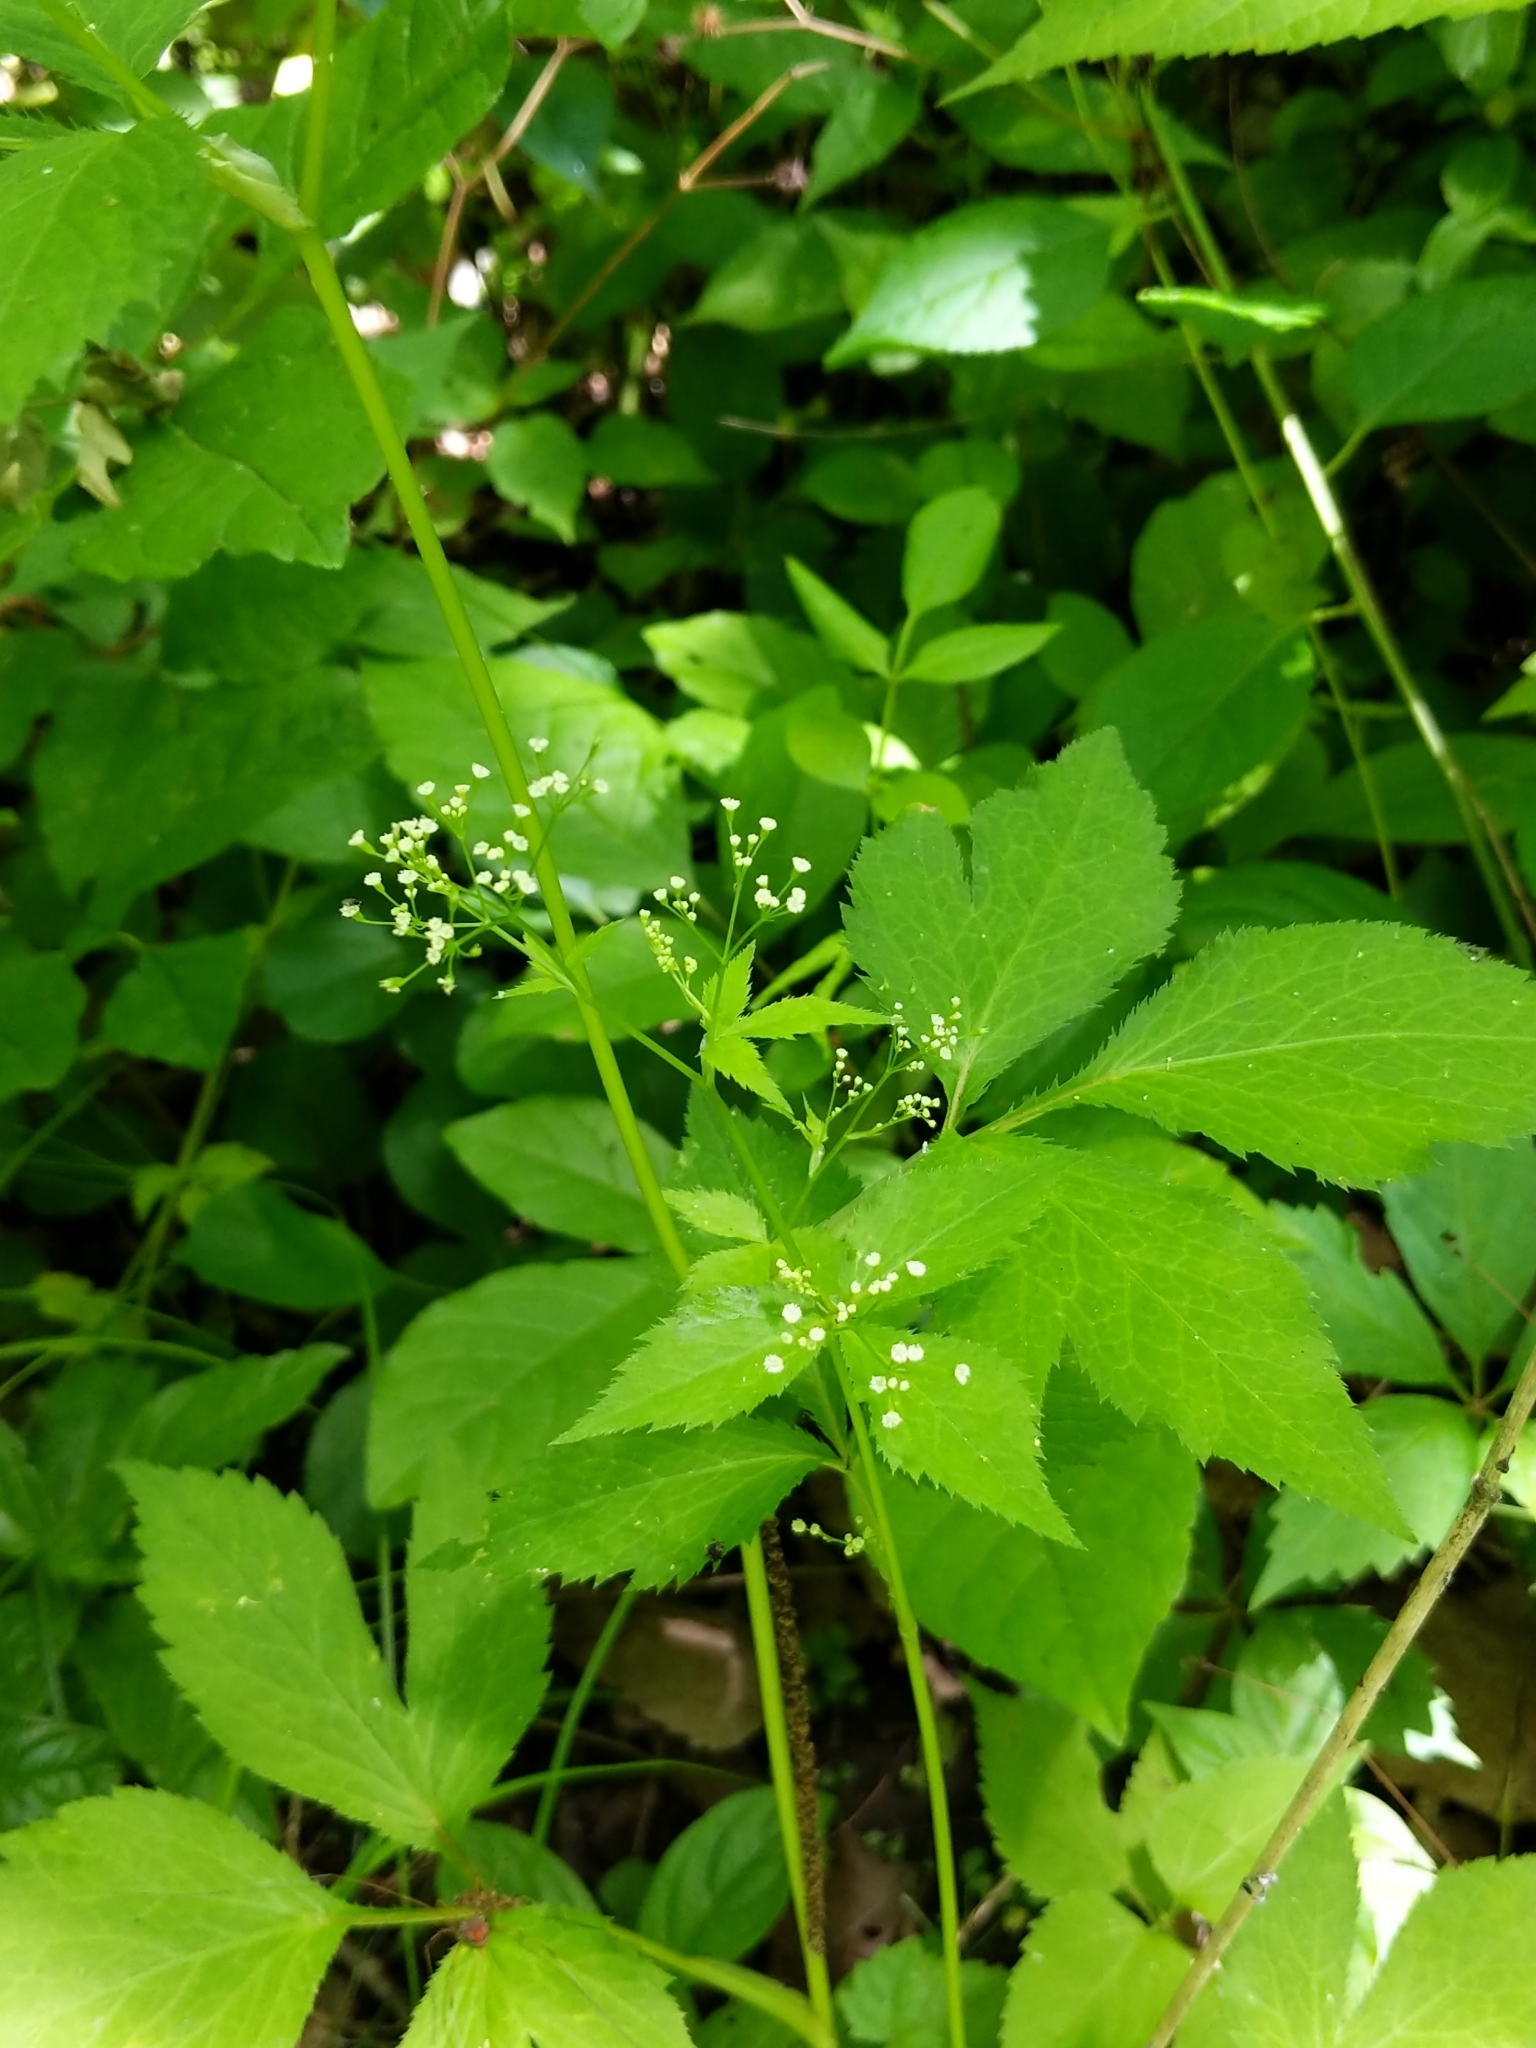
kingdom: Plantae
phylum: Tracheophyta
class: Magnoliopsida
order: Apiales
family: Apiaceae
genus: Cryptotaenia
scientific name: Cryptotaenia canadensis
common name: Honewort
